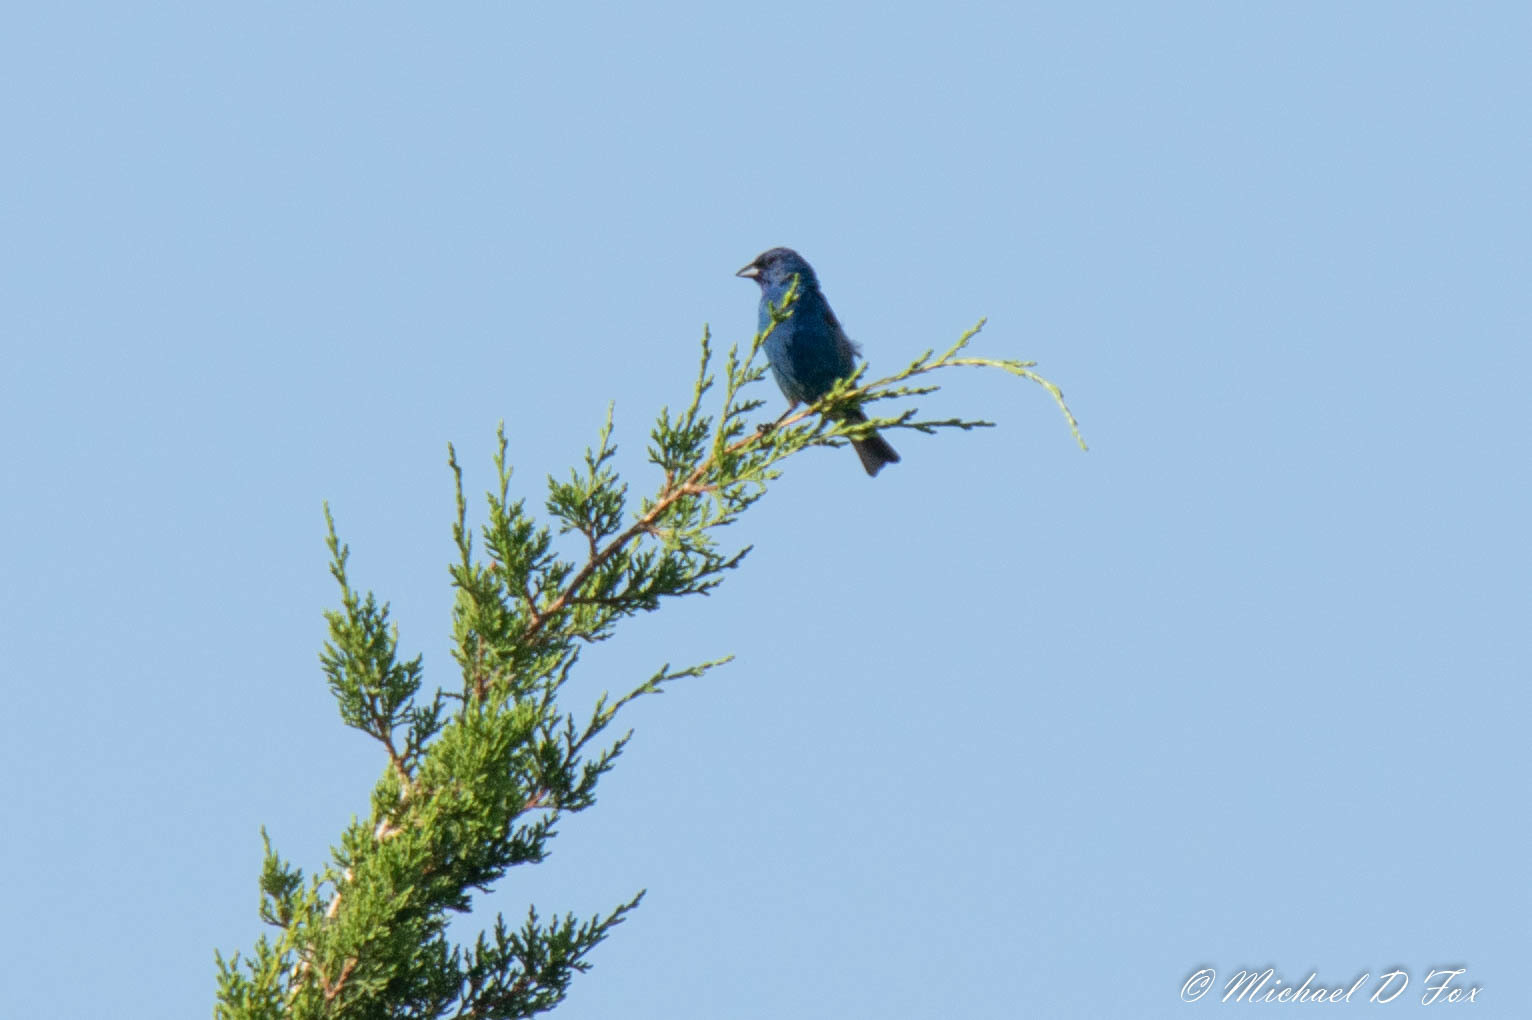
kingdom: Animalia
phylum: Chordata
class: Aves
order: Passeriformes
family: Cardinalidae
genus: Passerina
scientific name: Passerina cyanea
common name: Indigo bunting
